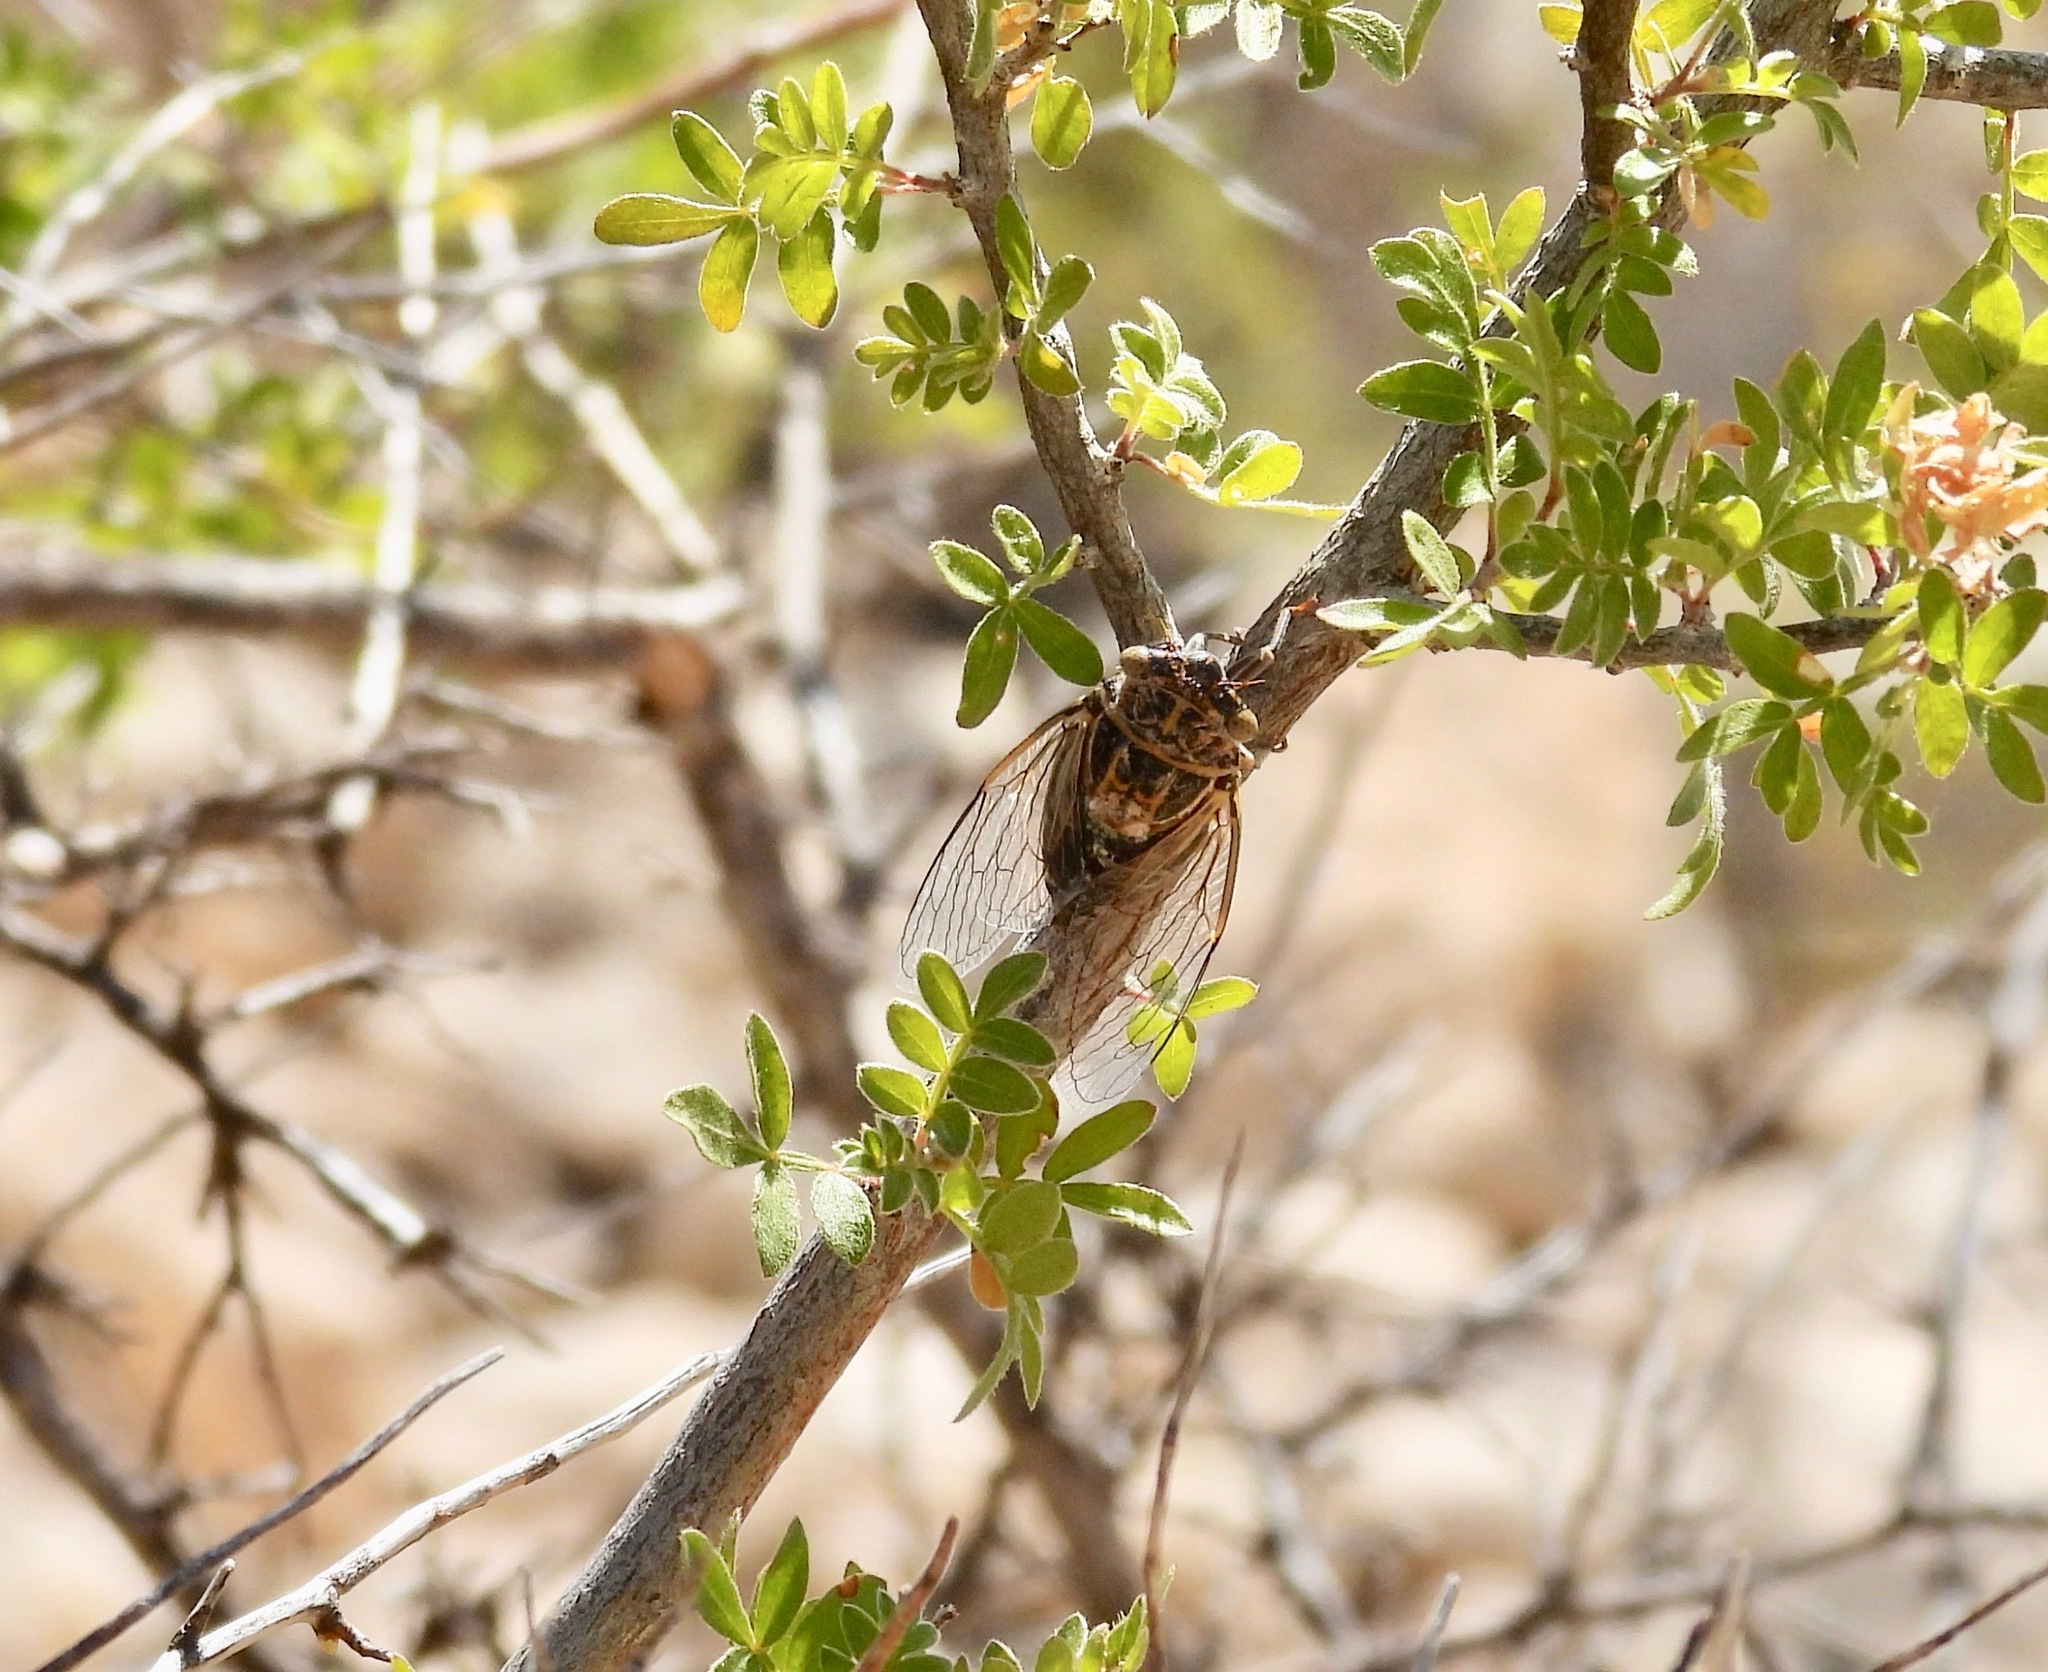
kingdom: Animalia
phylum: Arthropoda
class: Insecta
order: Hemiptera
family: Cicadidae
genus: Diceroprocta
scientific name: Diceroprocta eugraphica
